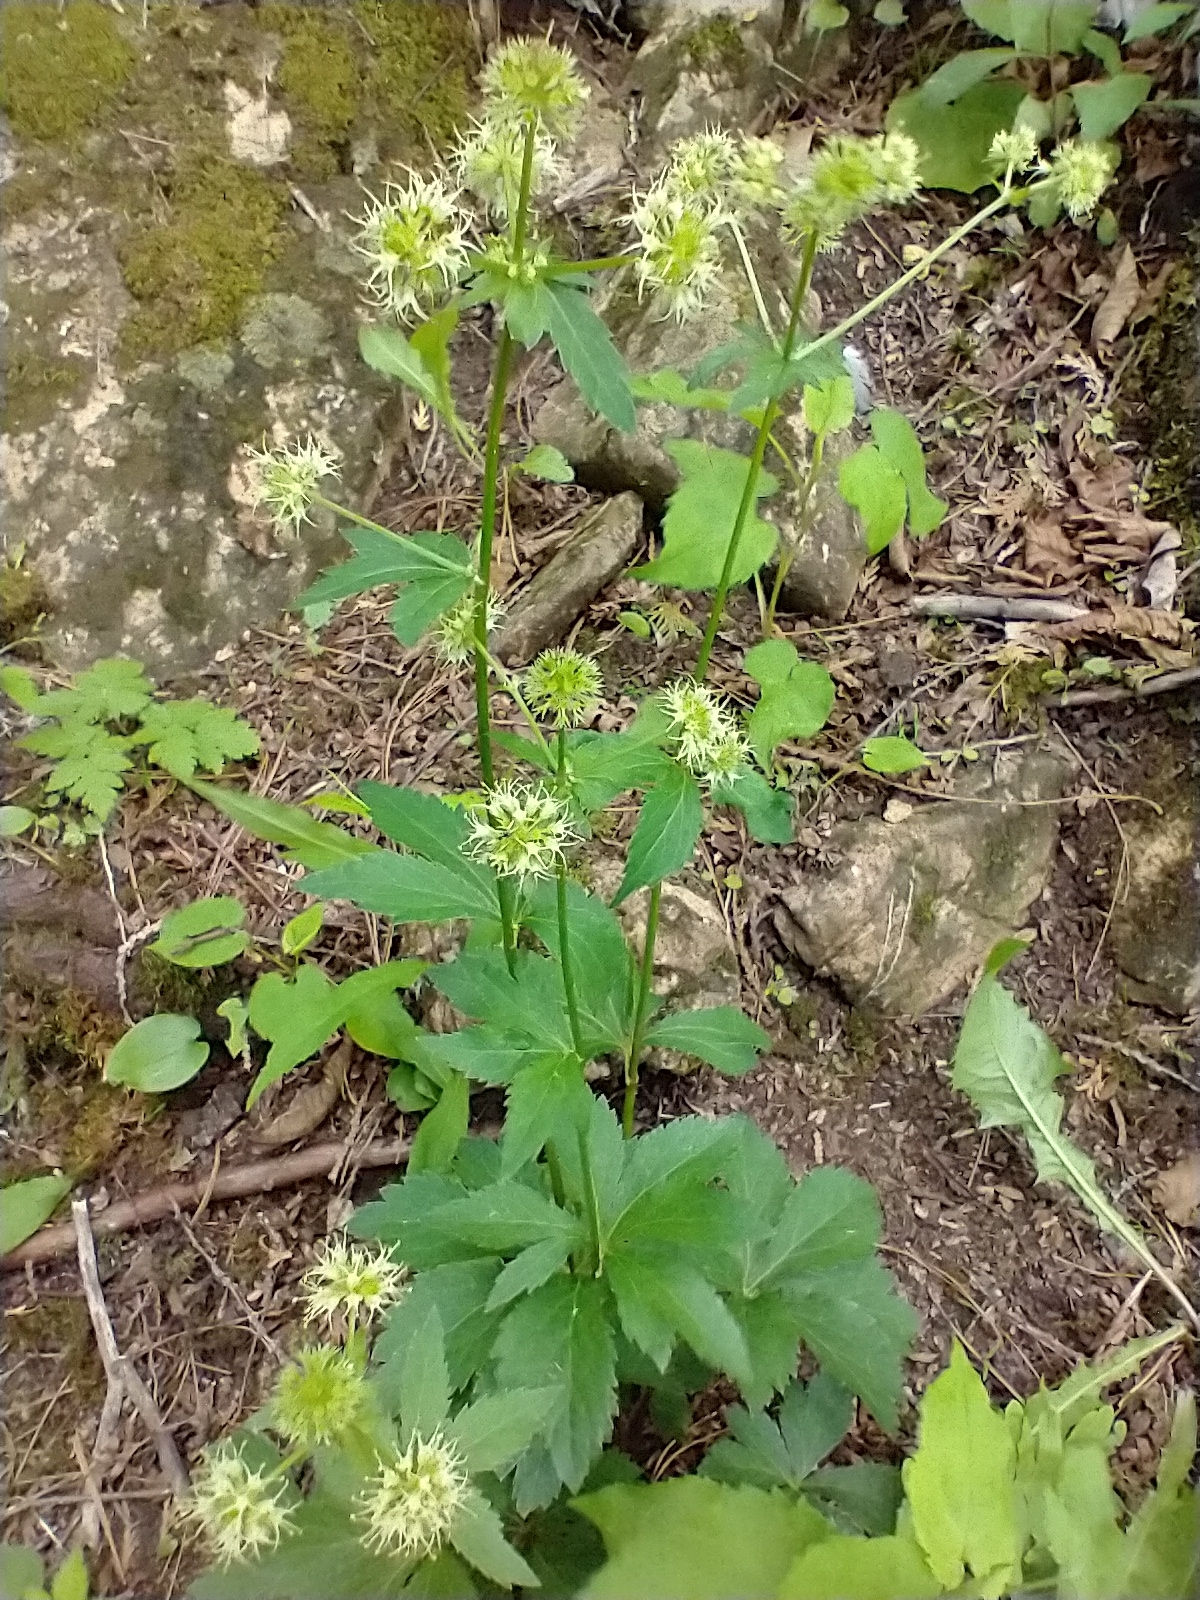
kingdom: Plantae
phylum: Tracheophyta
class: Magnoliopsida
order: Apiales
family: Apiaceae
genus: Sanicula
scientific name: Sanicula marilandica
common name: Black snakeroot
